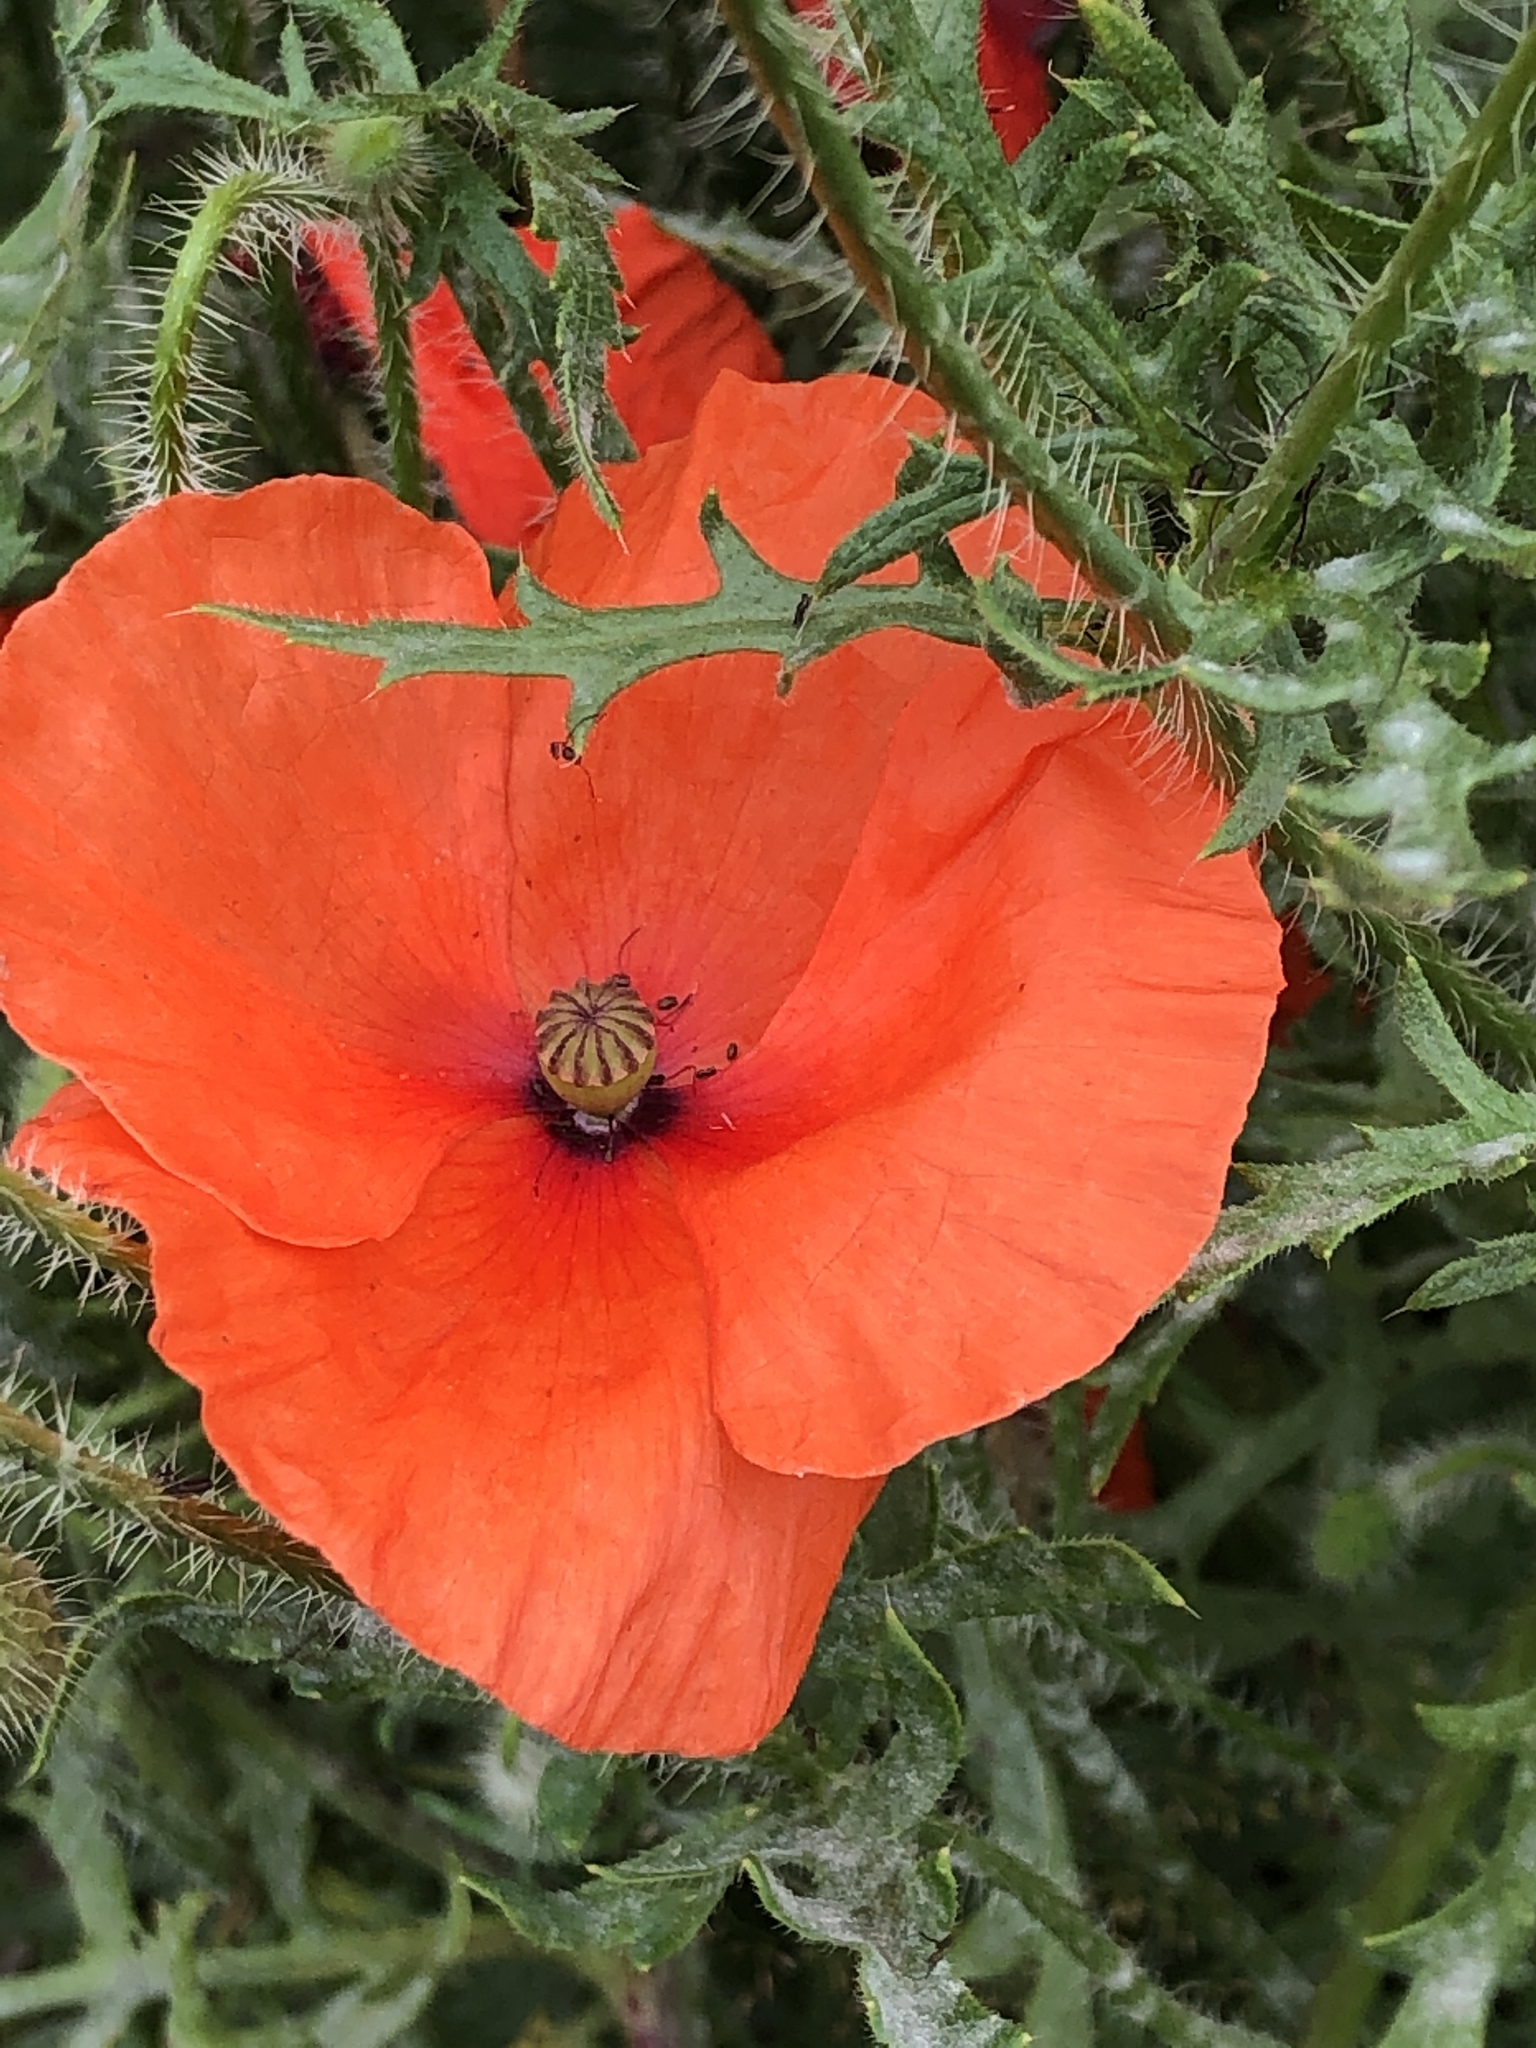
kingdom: Plantae
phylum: Tracheophyta
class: Magnoliopsida
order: Ranunculales
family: Papaveraceae
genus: Papaver
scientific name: Papaver rhoeas
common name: Corn poppy
